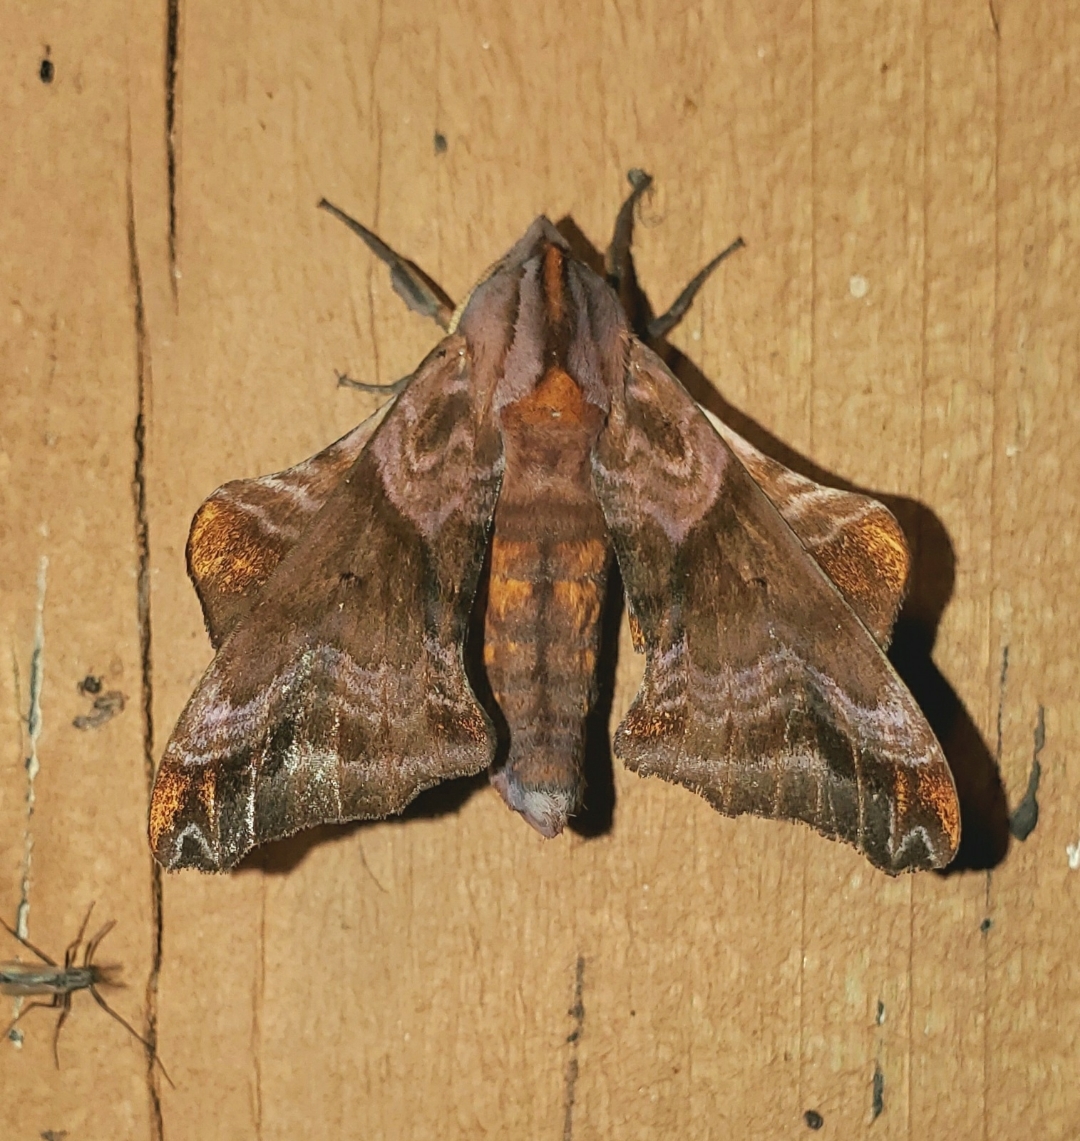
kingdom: Animalia
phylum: Arthropoda
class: Insecta
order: Lepidoptera
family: Sphingidae
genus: Paonias
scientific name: Paonias myops
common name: Small-eyed sphinx
